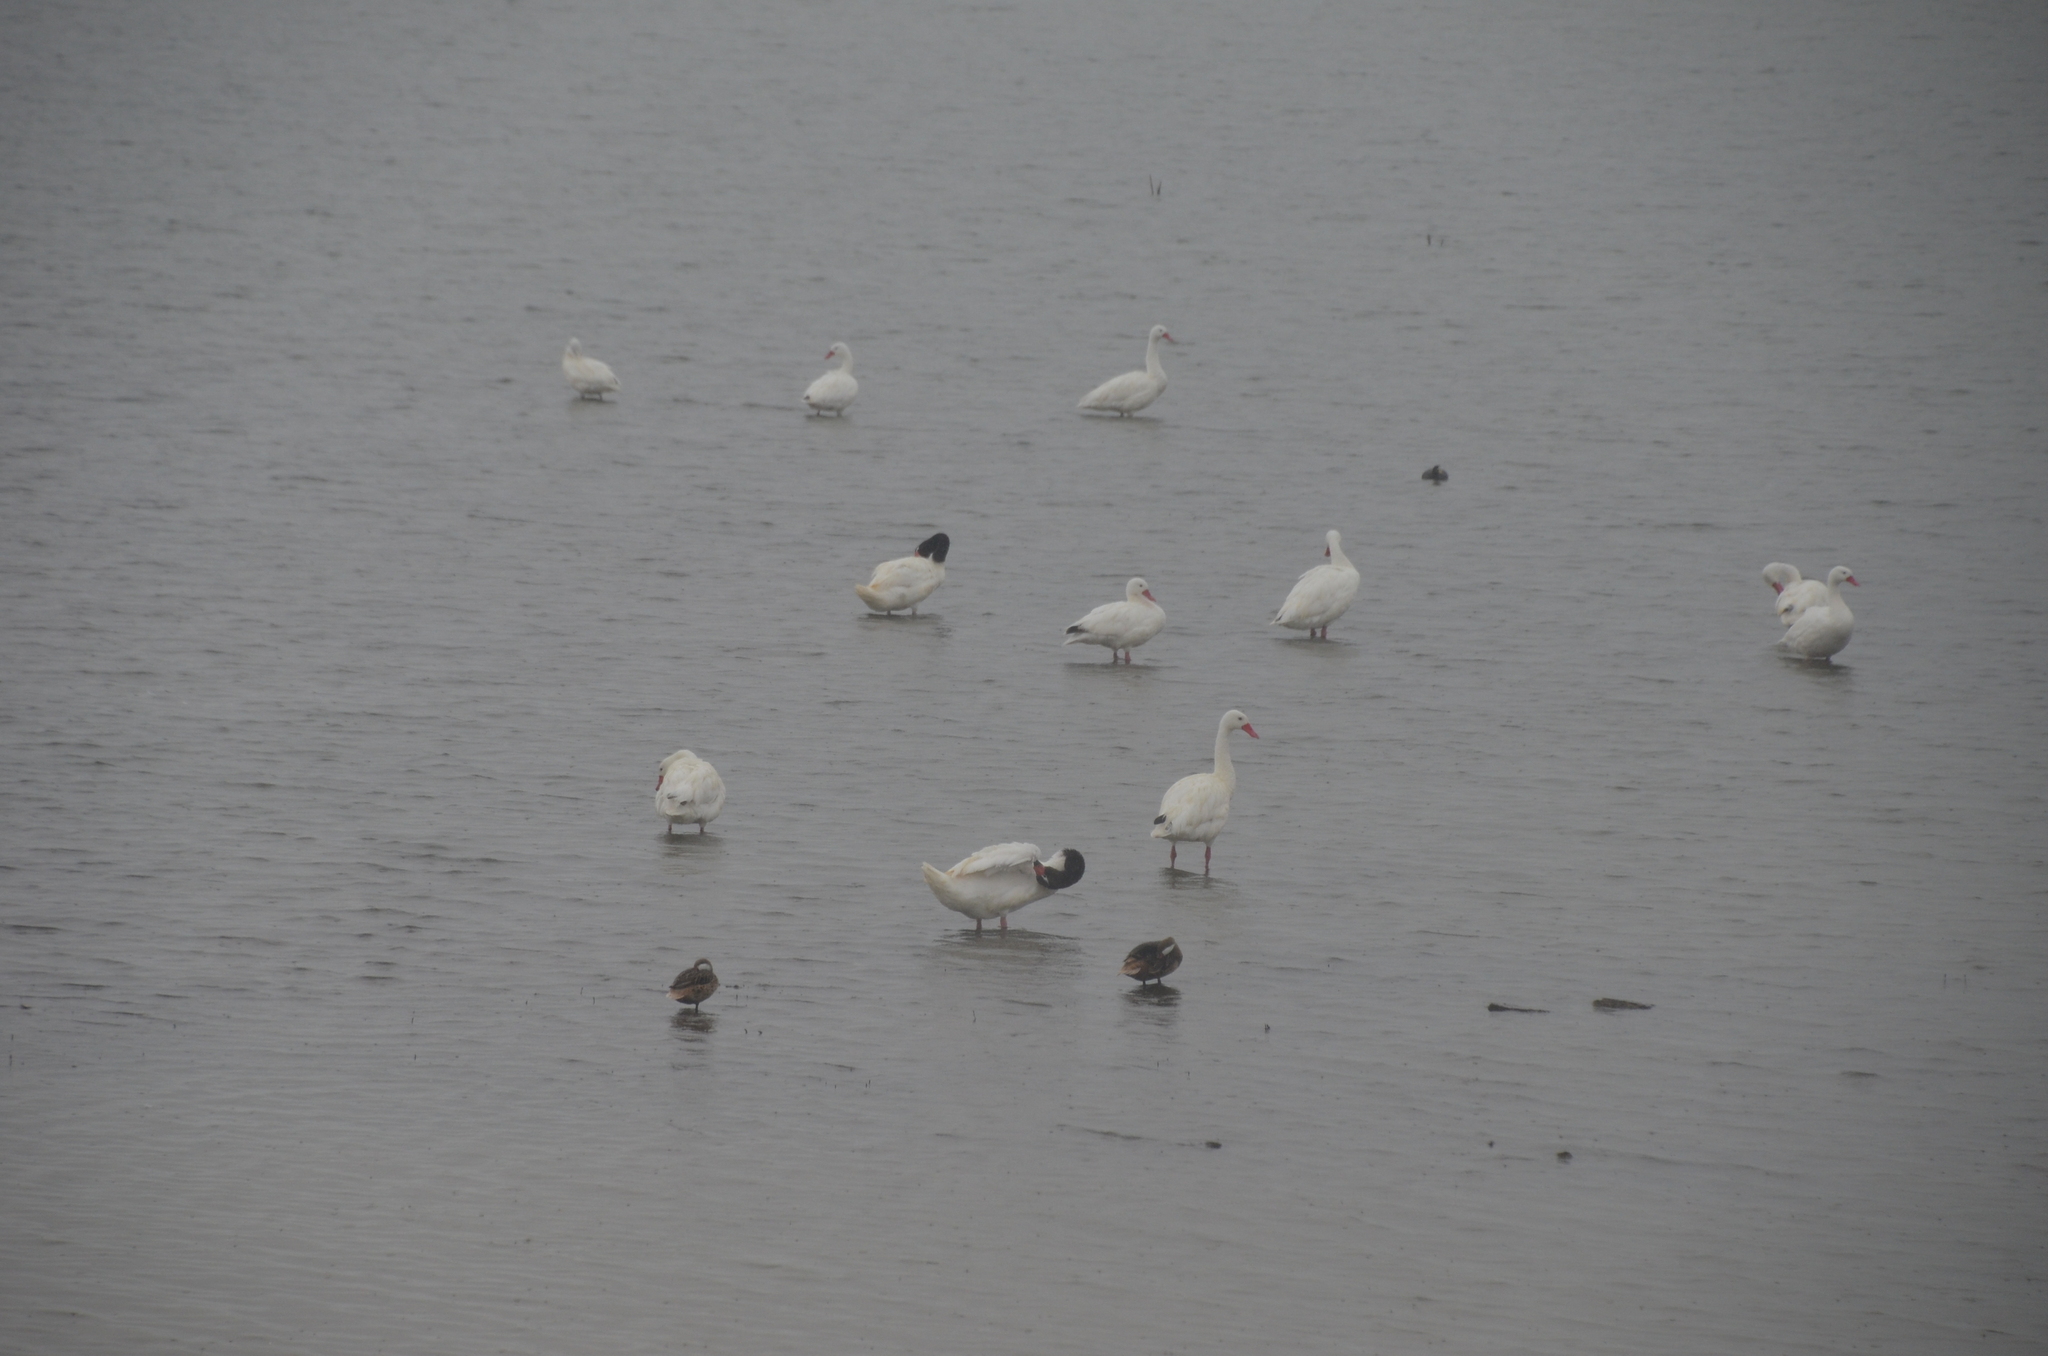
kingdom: Animalia
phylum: Chordata
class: Aves
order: Anseriformes
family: Anatidae
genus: Coscoroba
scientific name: Coscoroba coscoroba
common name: Coscoroba swan
